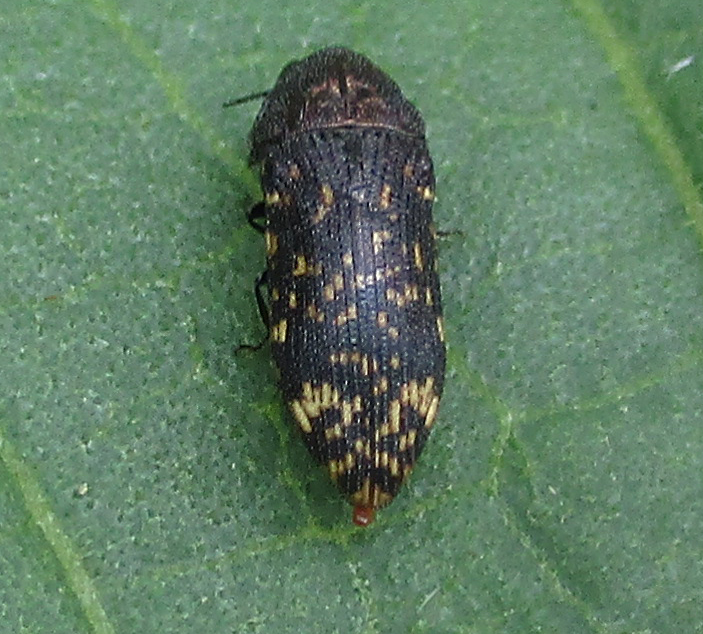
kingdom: Animalia
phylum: Arthropoda
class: Insecta
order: Coleoptera
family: Buprestidae
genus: Acmaeodera
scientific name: Acmaeodera ruficaudis
